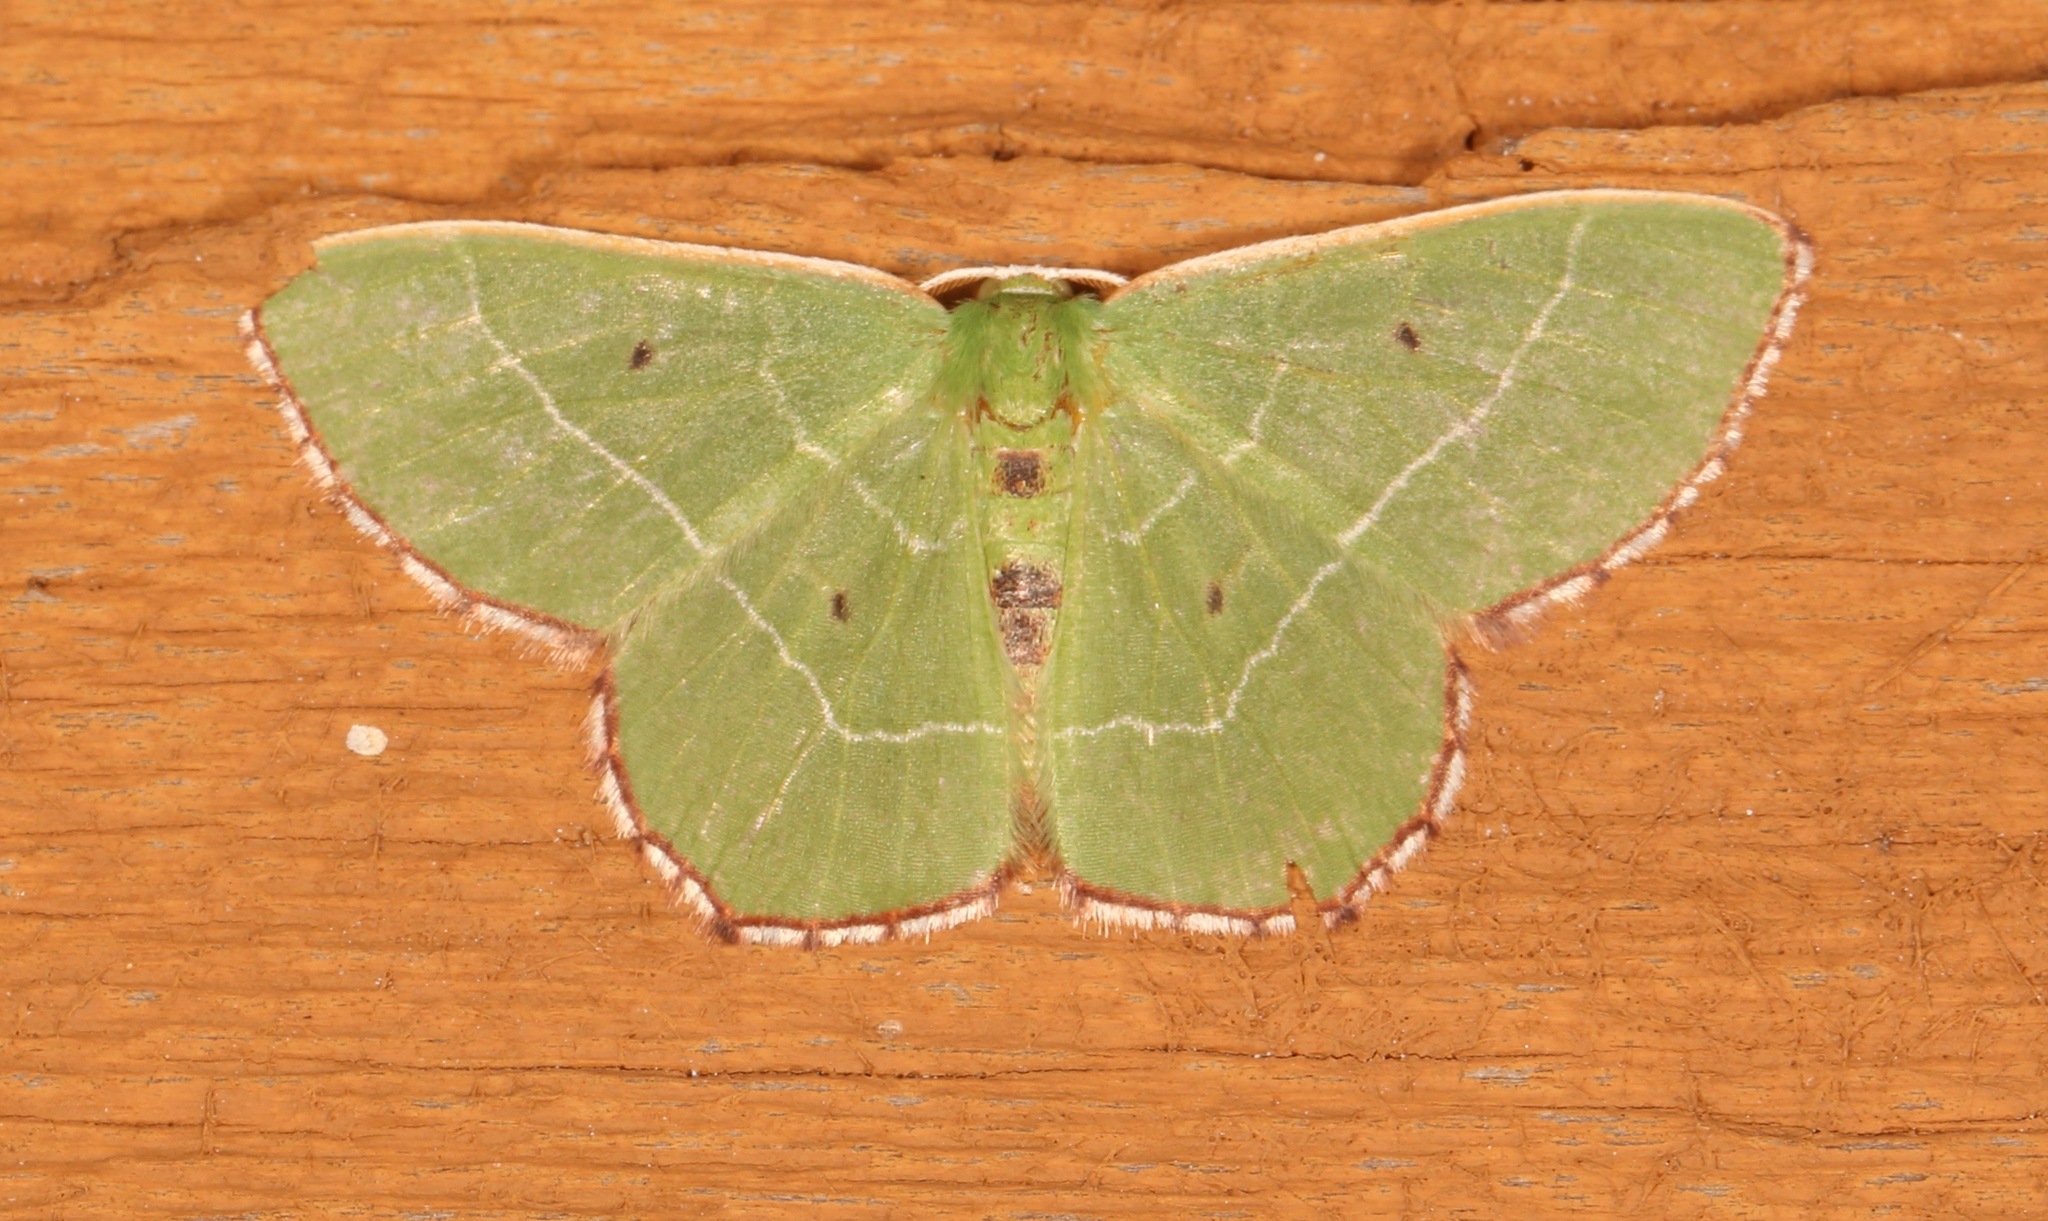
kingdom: Animalia
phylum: Arthropoda
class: Insecta
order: Lepidoptera
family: Geometridae
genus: Nemoria
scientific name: Nemoria saturiba
